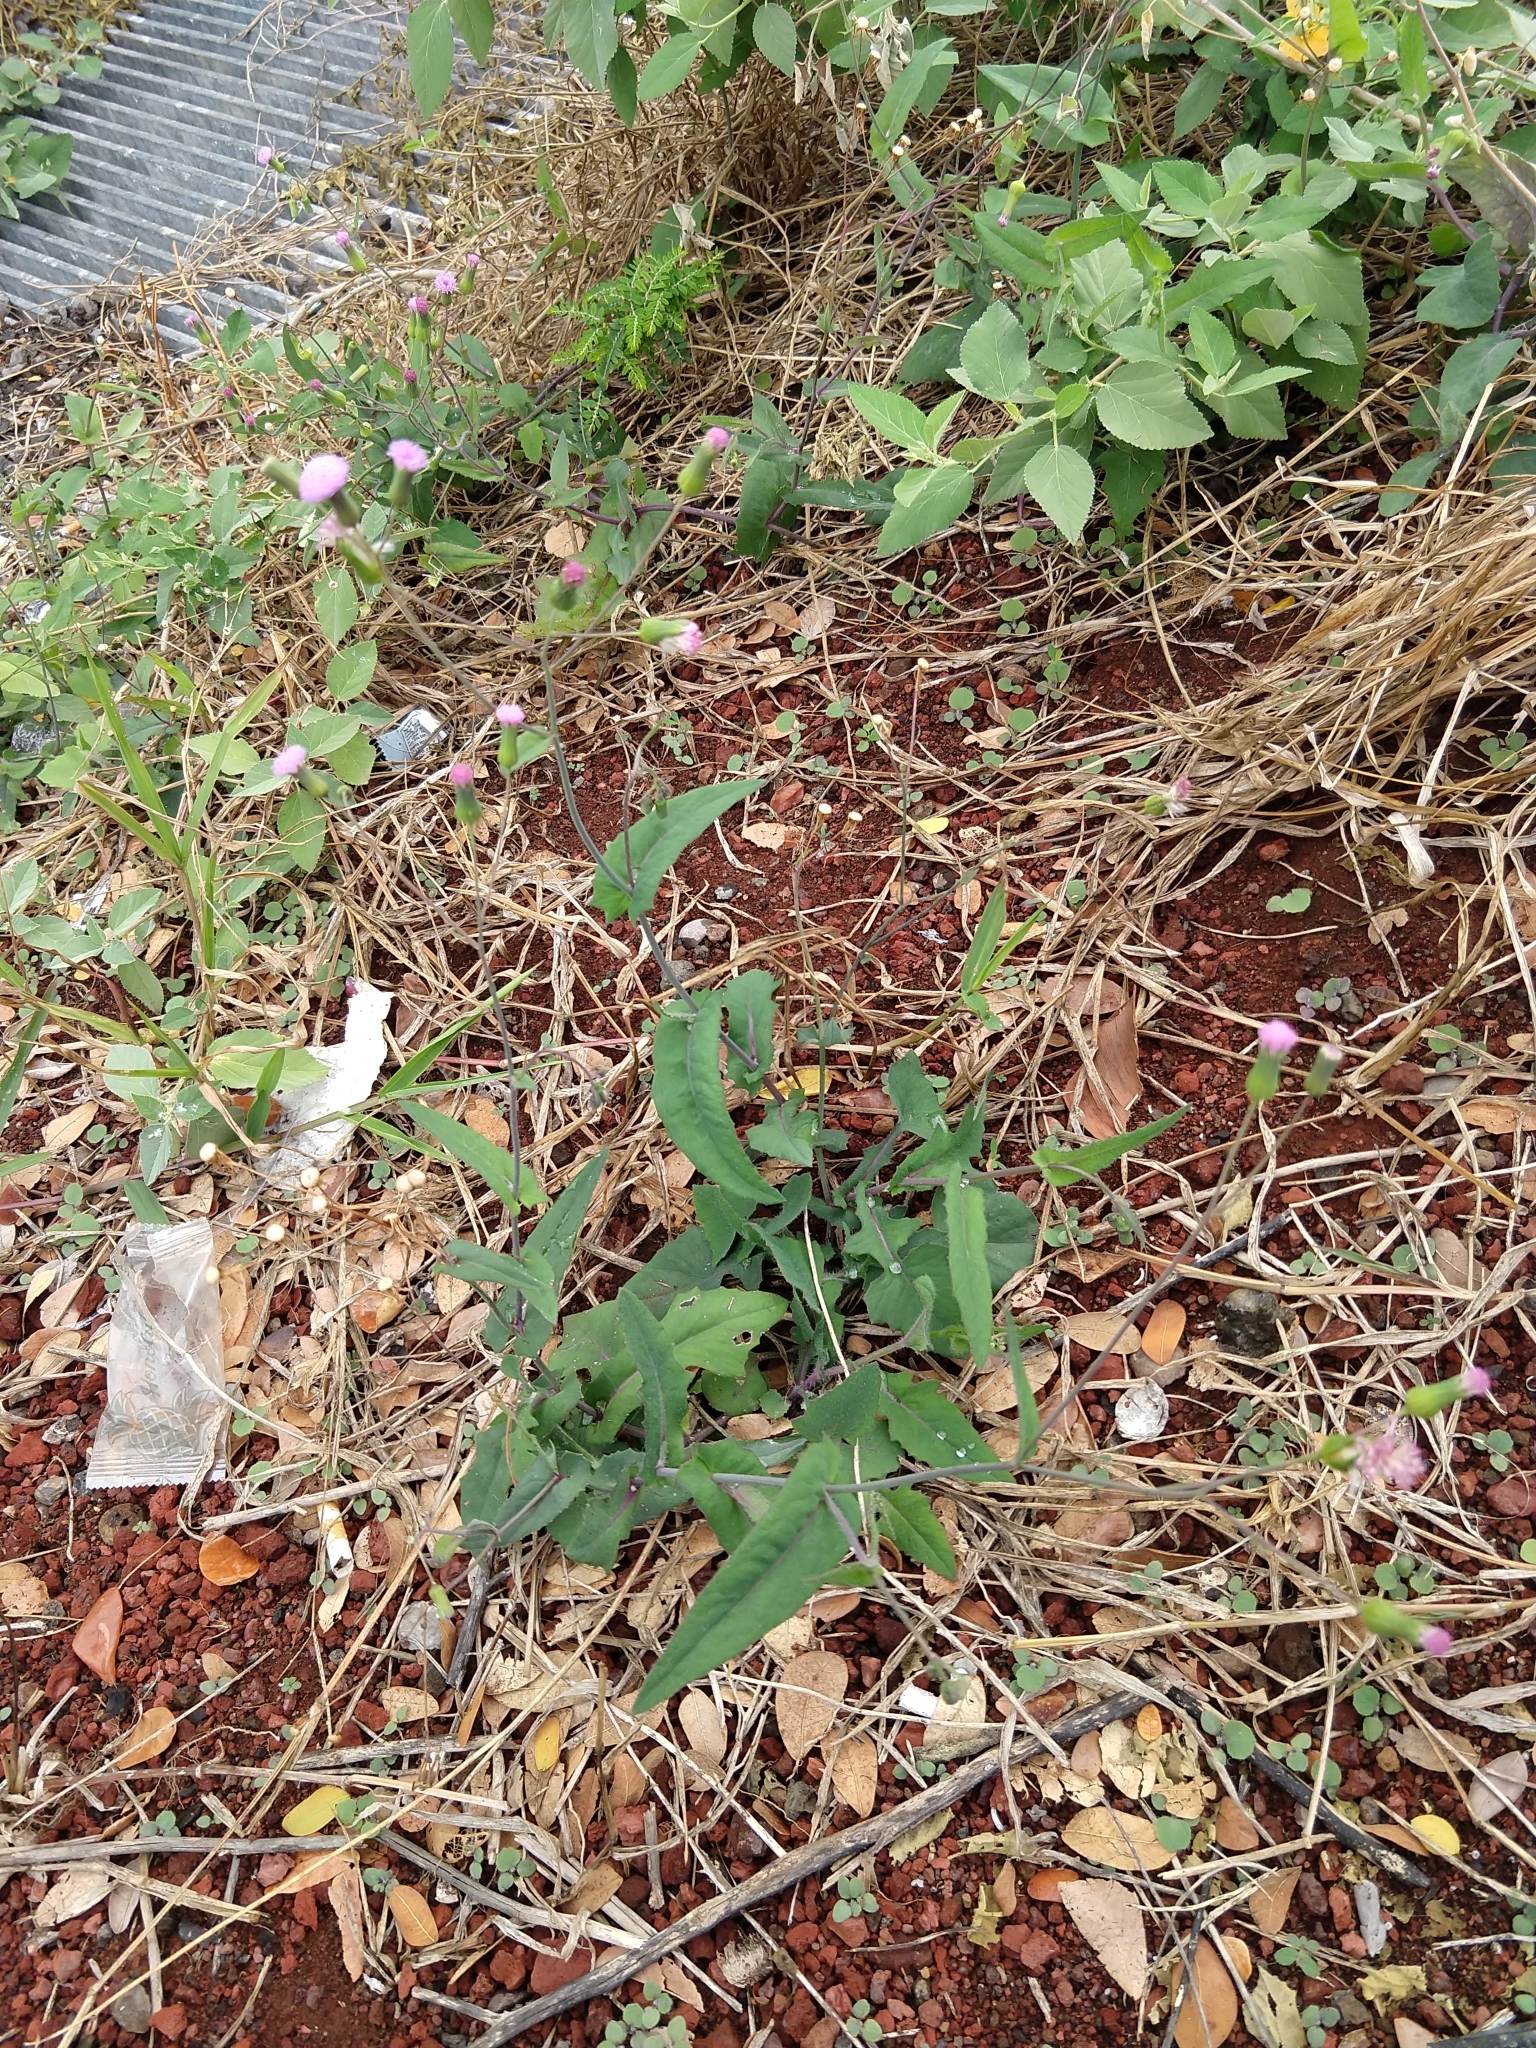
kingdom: Plantae
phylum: Tracheophyta
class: Magnoliopsida
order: Asterales
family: Asteraceae
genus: Emilia
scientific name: Emilia sonchifolia
